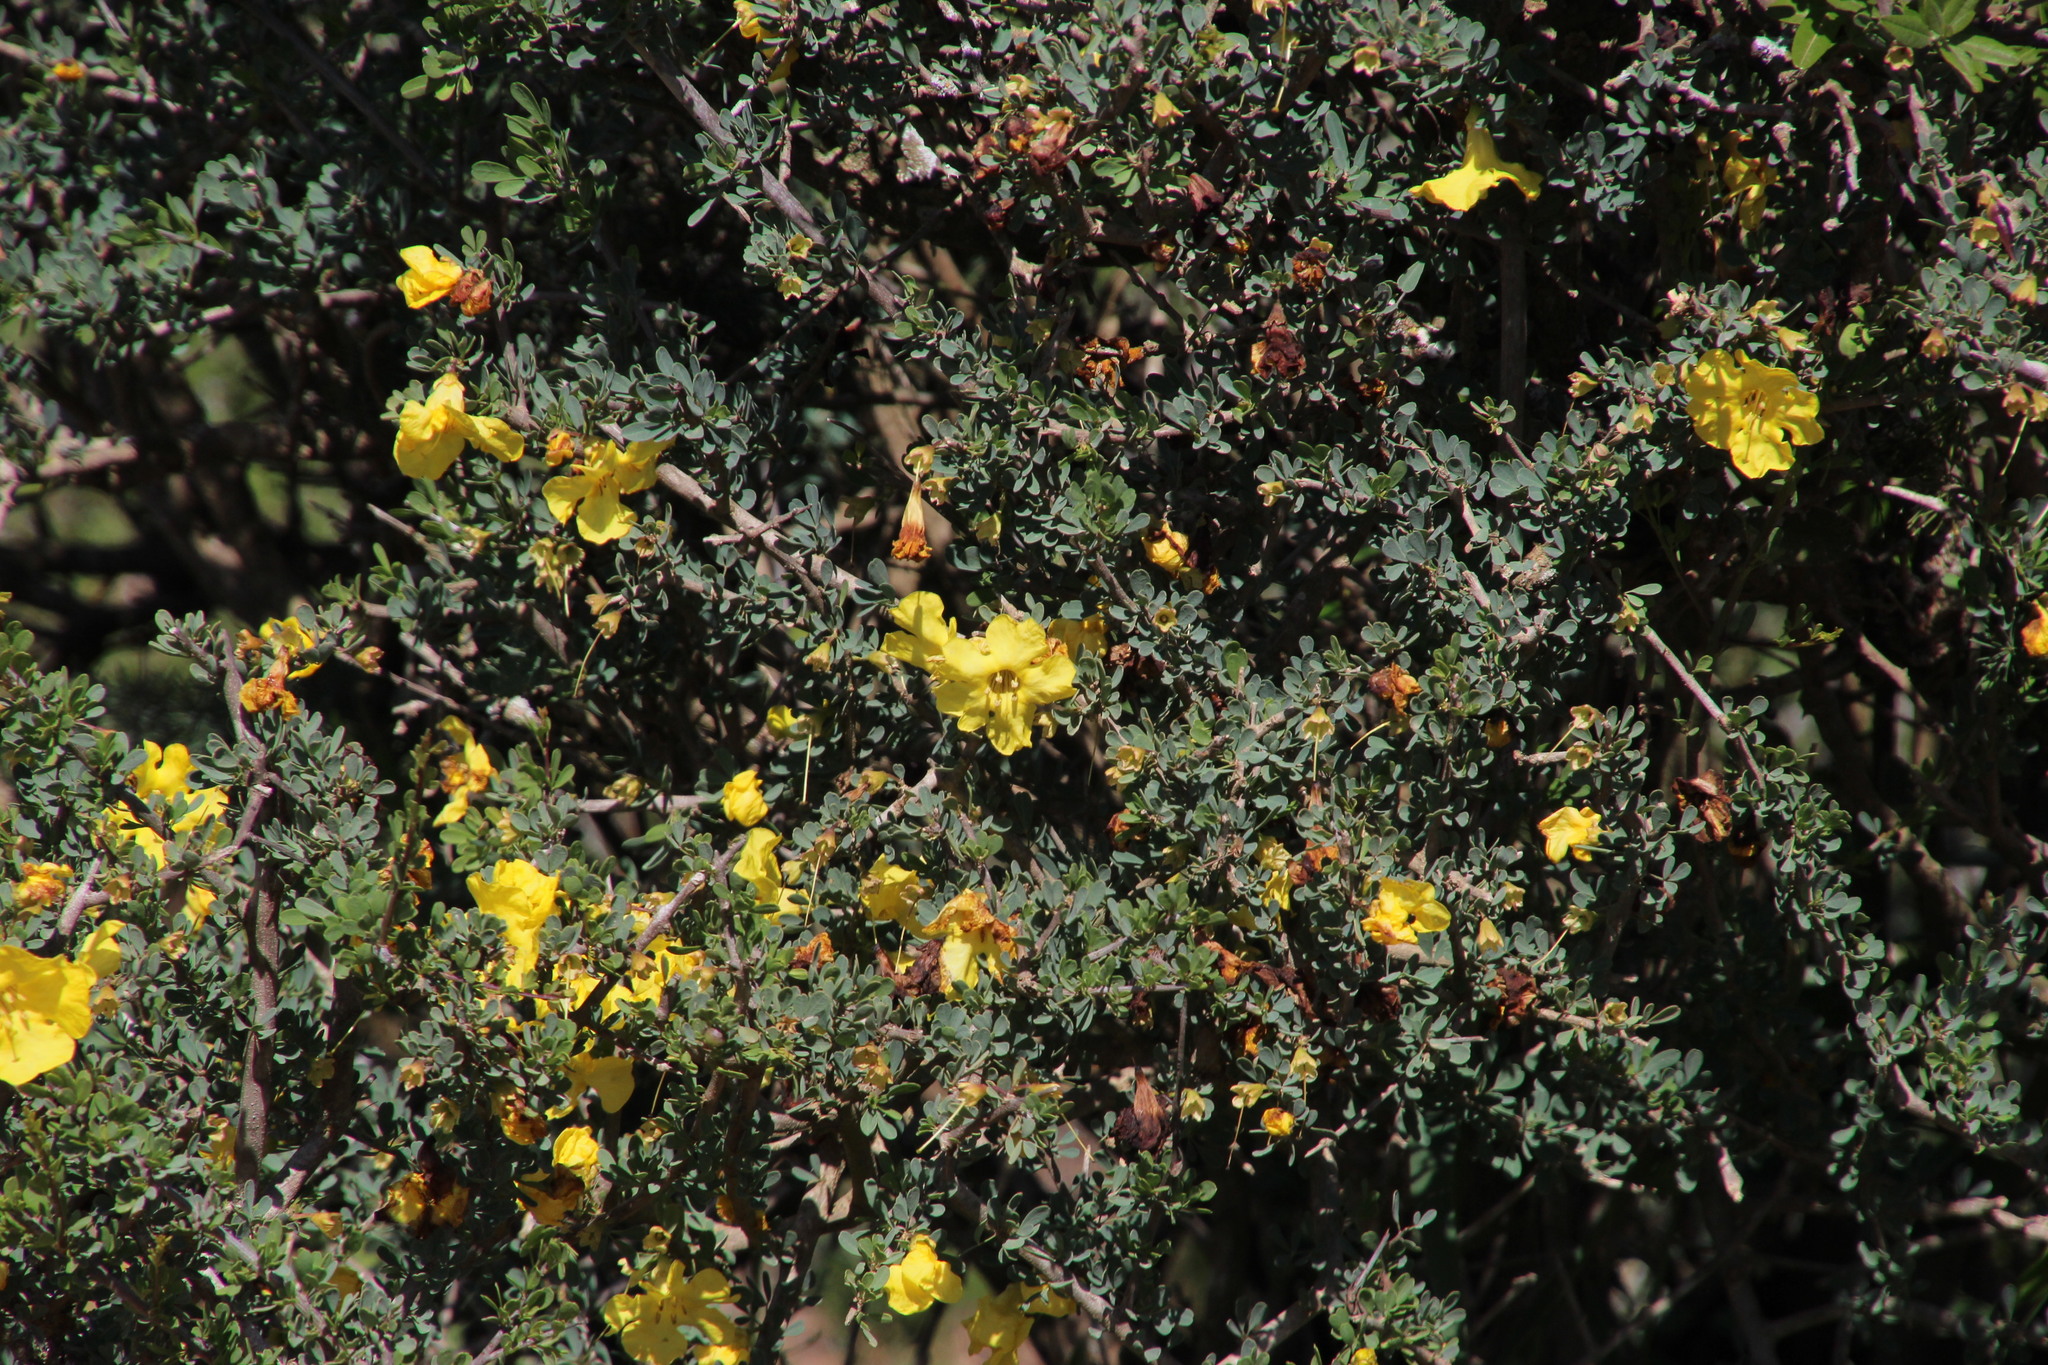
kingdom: Plantae
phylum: Tracheophyta
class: Magnoliopsida
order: Lamiales
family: Bignoniaceae
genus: Rhigozum
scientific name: Rhigozum obovatum
